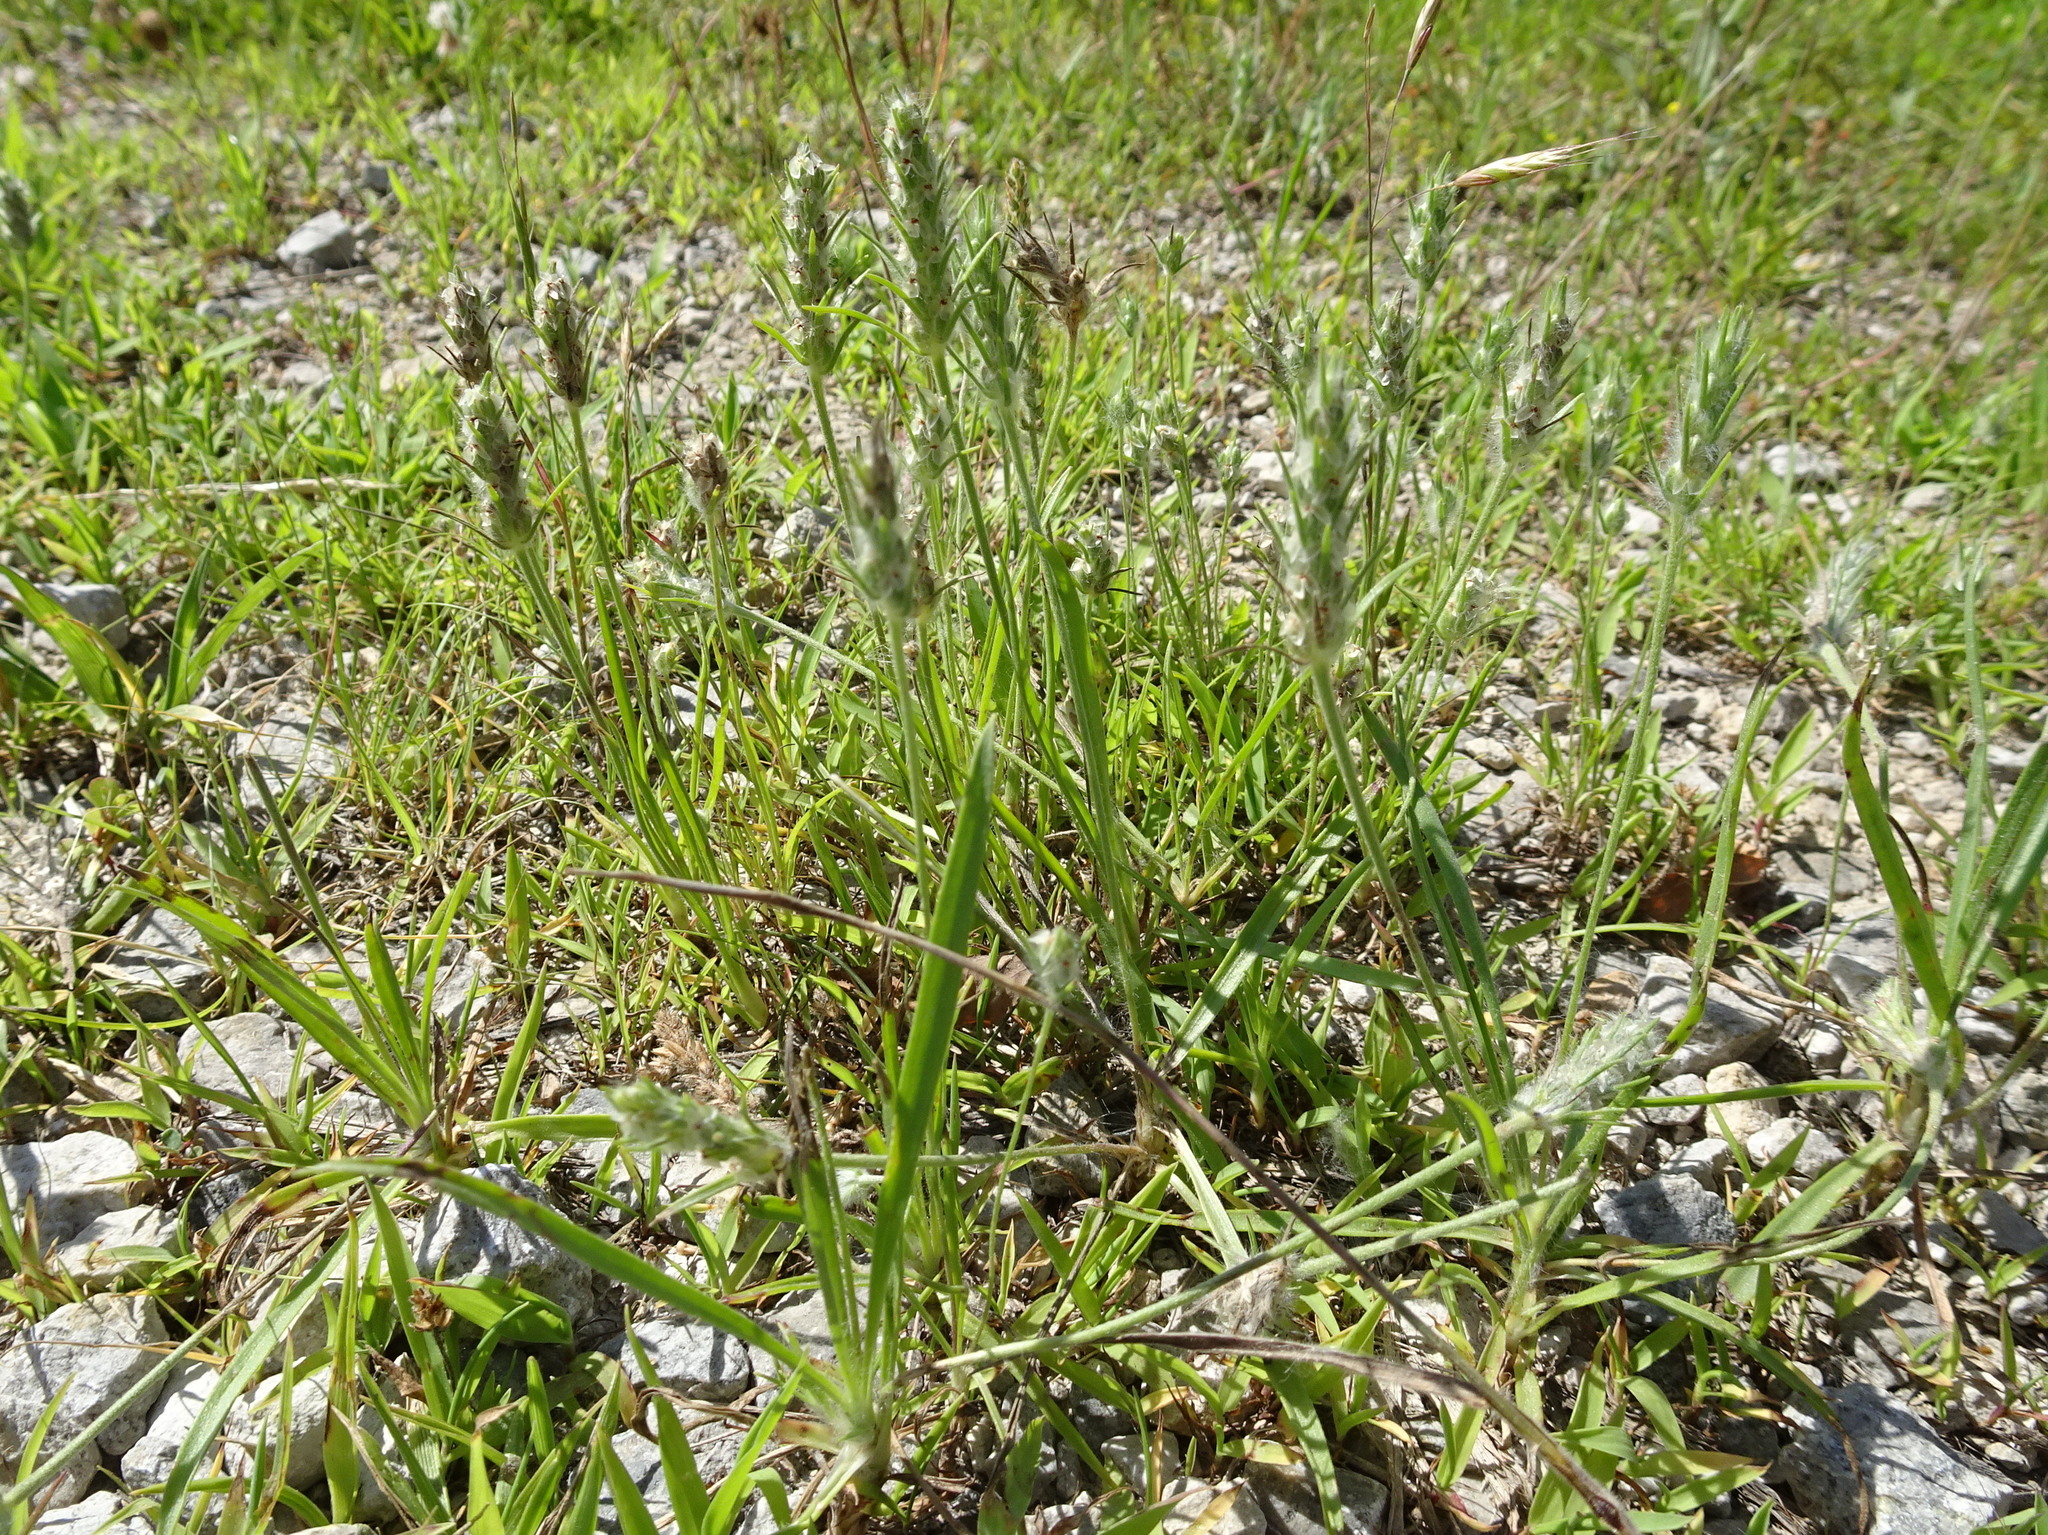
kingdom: Plantae
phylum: Tracheophyta
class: Magnoliopsida
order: Lamiales
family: Plantaginaceae
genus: Plantago
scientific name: Plantago aristata
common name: Bracted plantain
